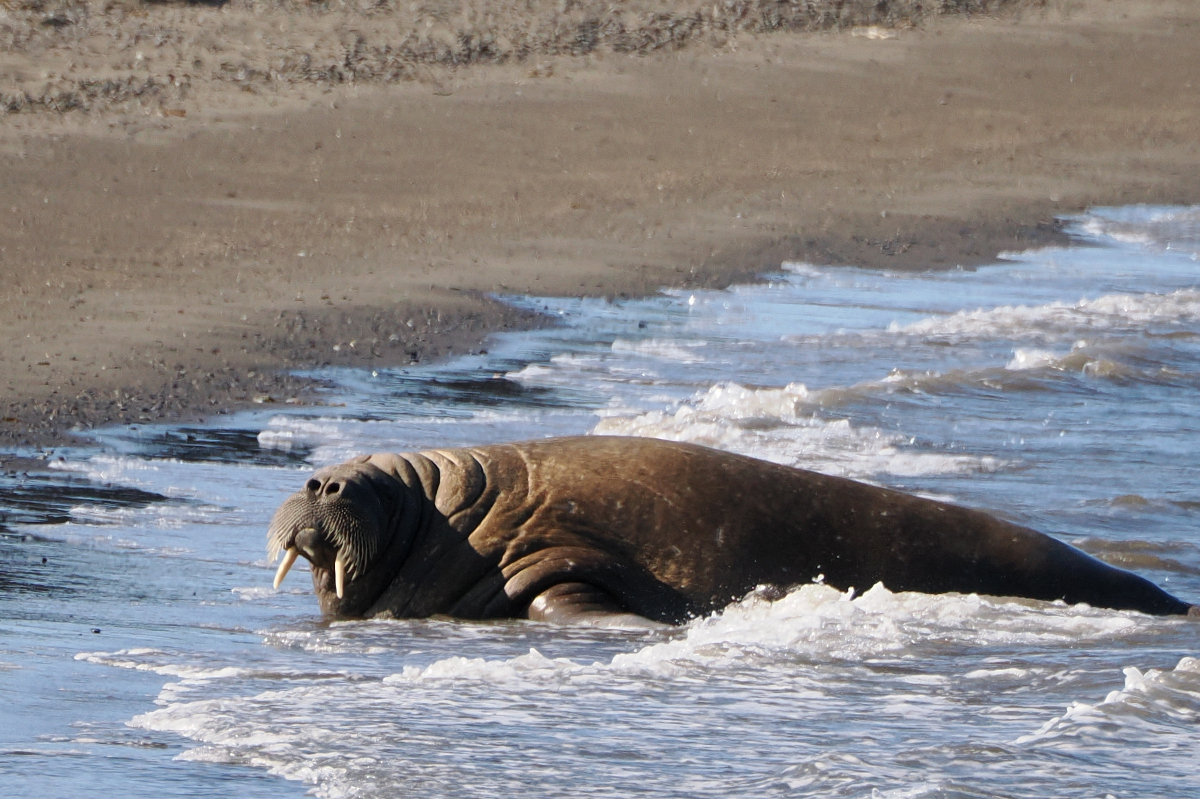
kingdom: Animalia
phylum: Chordata
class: Mammalia
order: Carnivora
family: Odobenidae
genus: Odobenus
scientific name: Odobenus rosmarus
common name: Walrus
